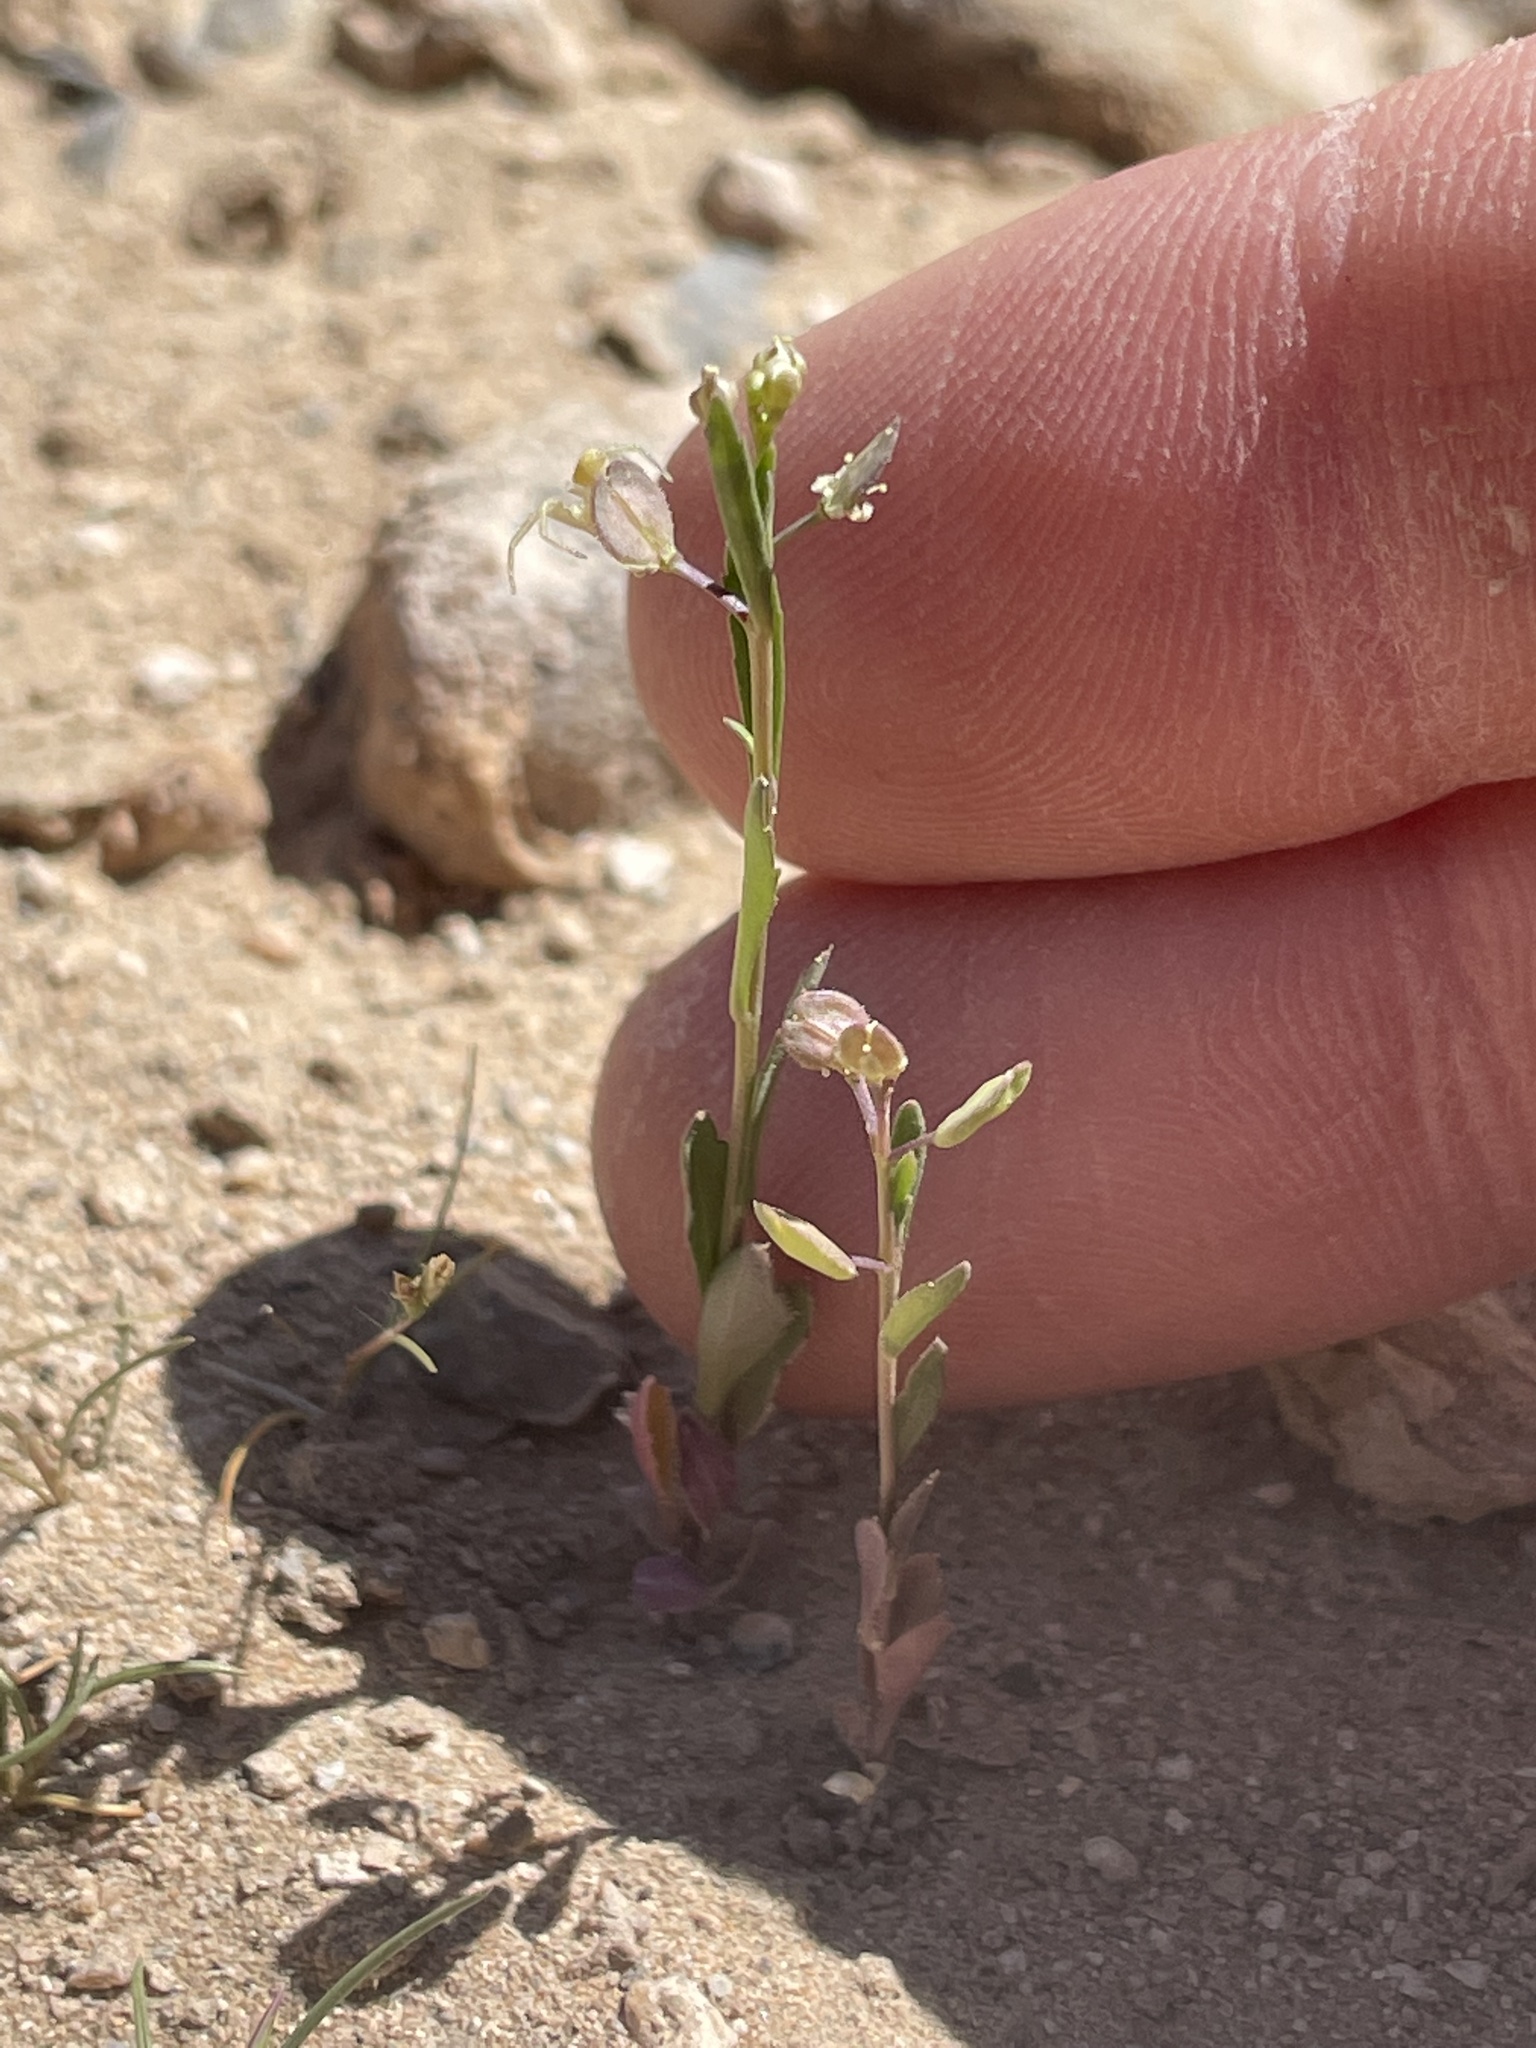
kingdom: Plantae
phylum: Tracheophyta
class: Magnoliopsida
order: Brassicales
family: Brassicaceae
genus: Lepidium
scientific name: Lepidium lasiocarpum
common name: Hairy-pod pepperwort
